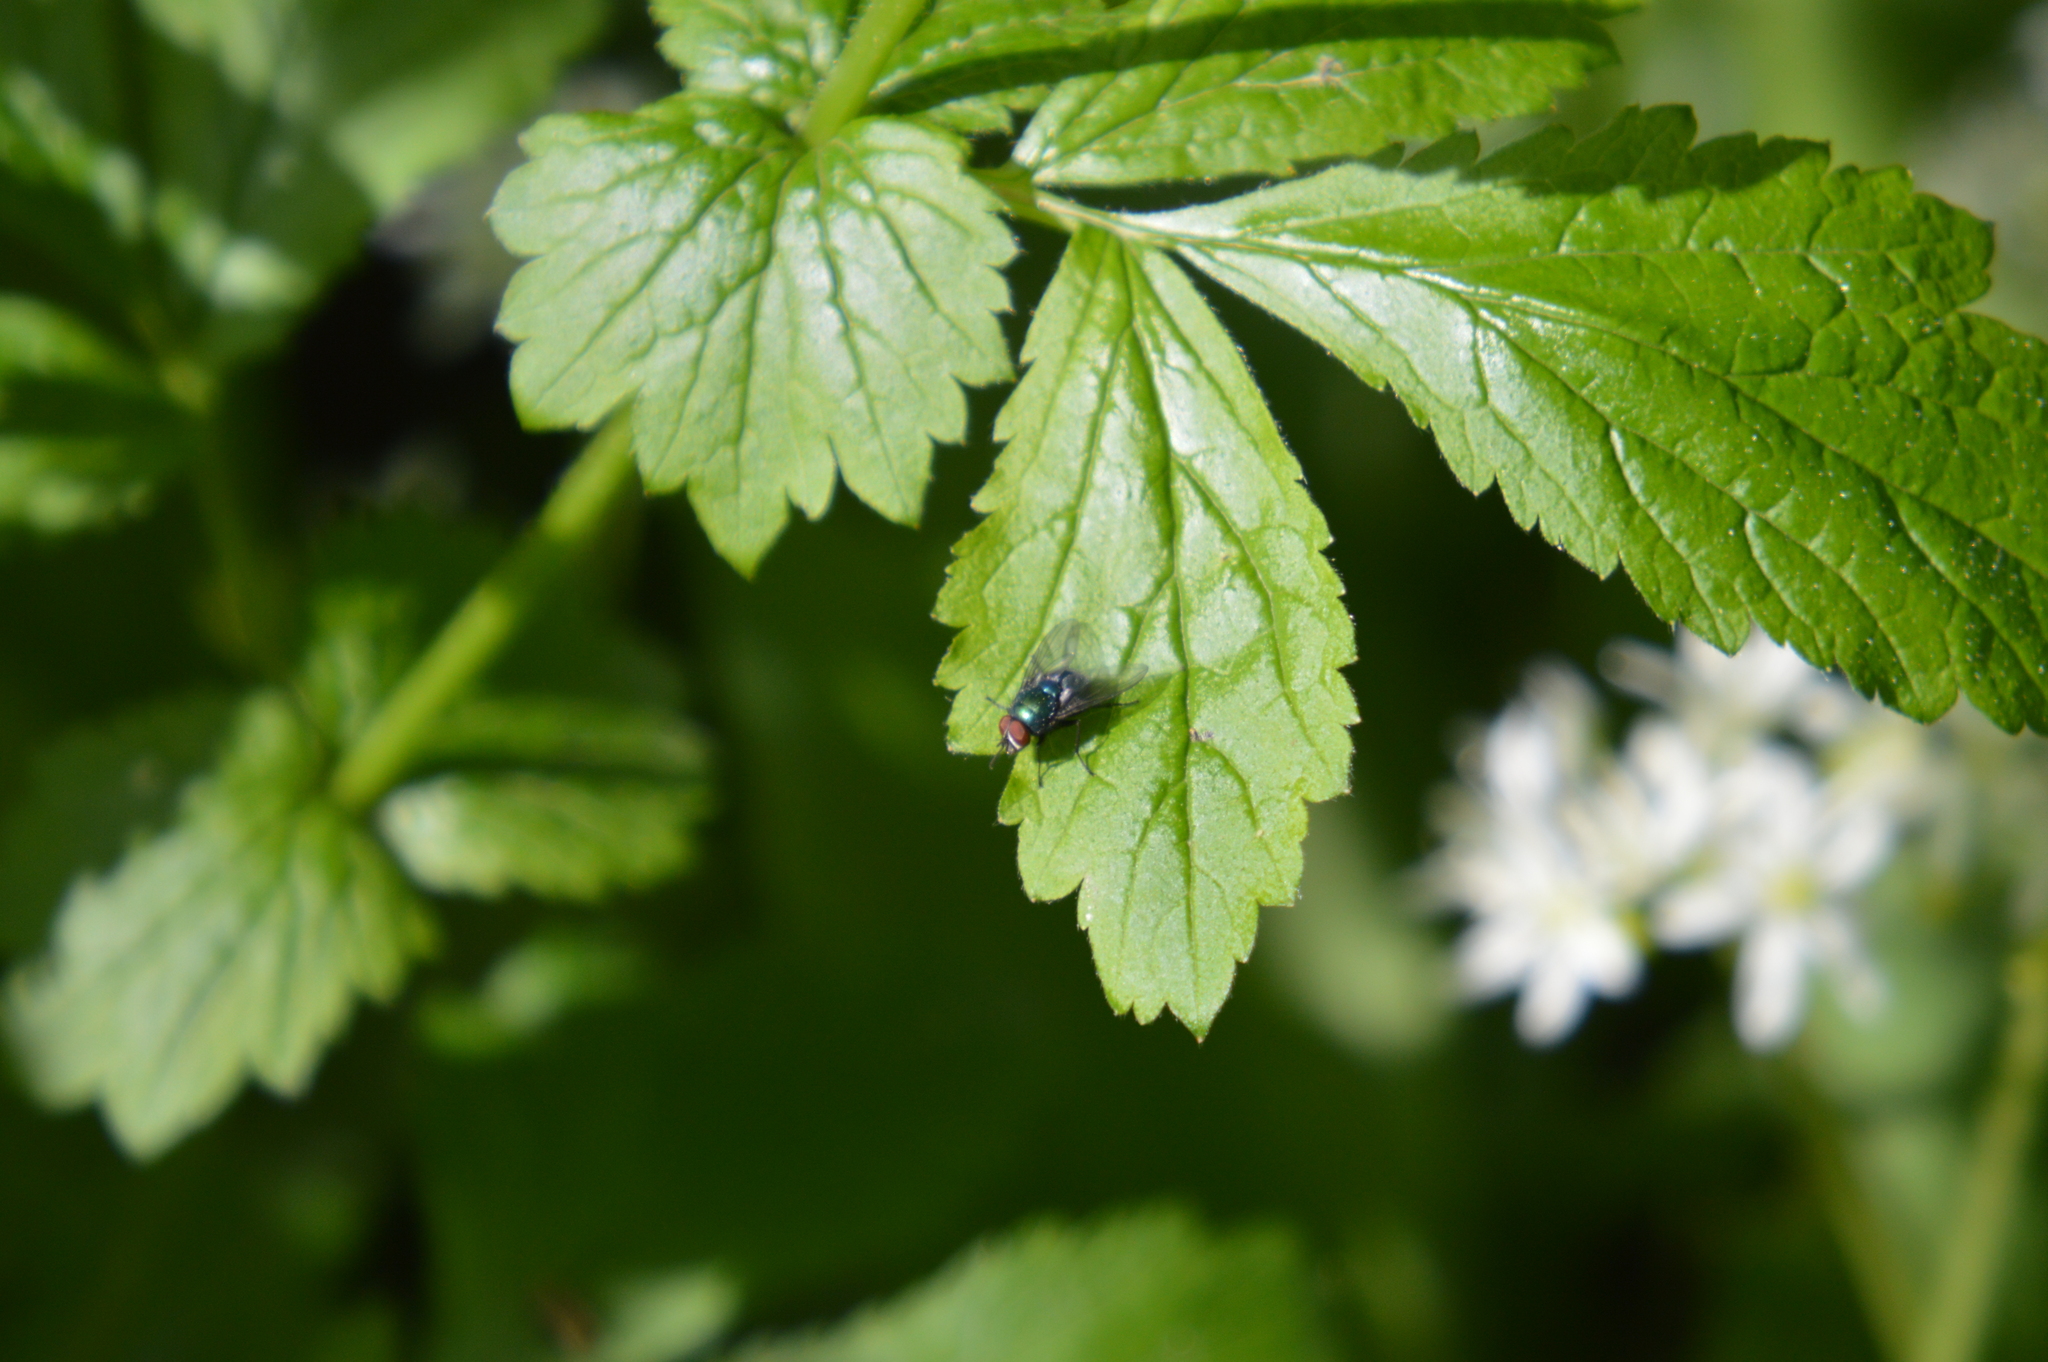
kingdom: Animalia
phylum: Arthropoda
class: Insecta
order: Orthoptera
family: Tettigoniidae
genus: Pholidoptera
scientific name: Pholidoptera griseoaptera
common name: Dark bush-cricket
